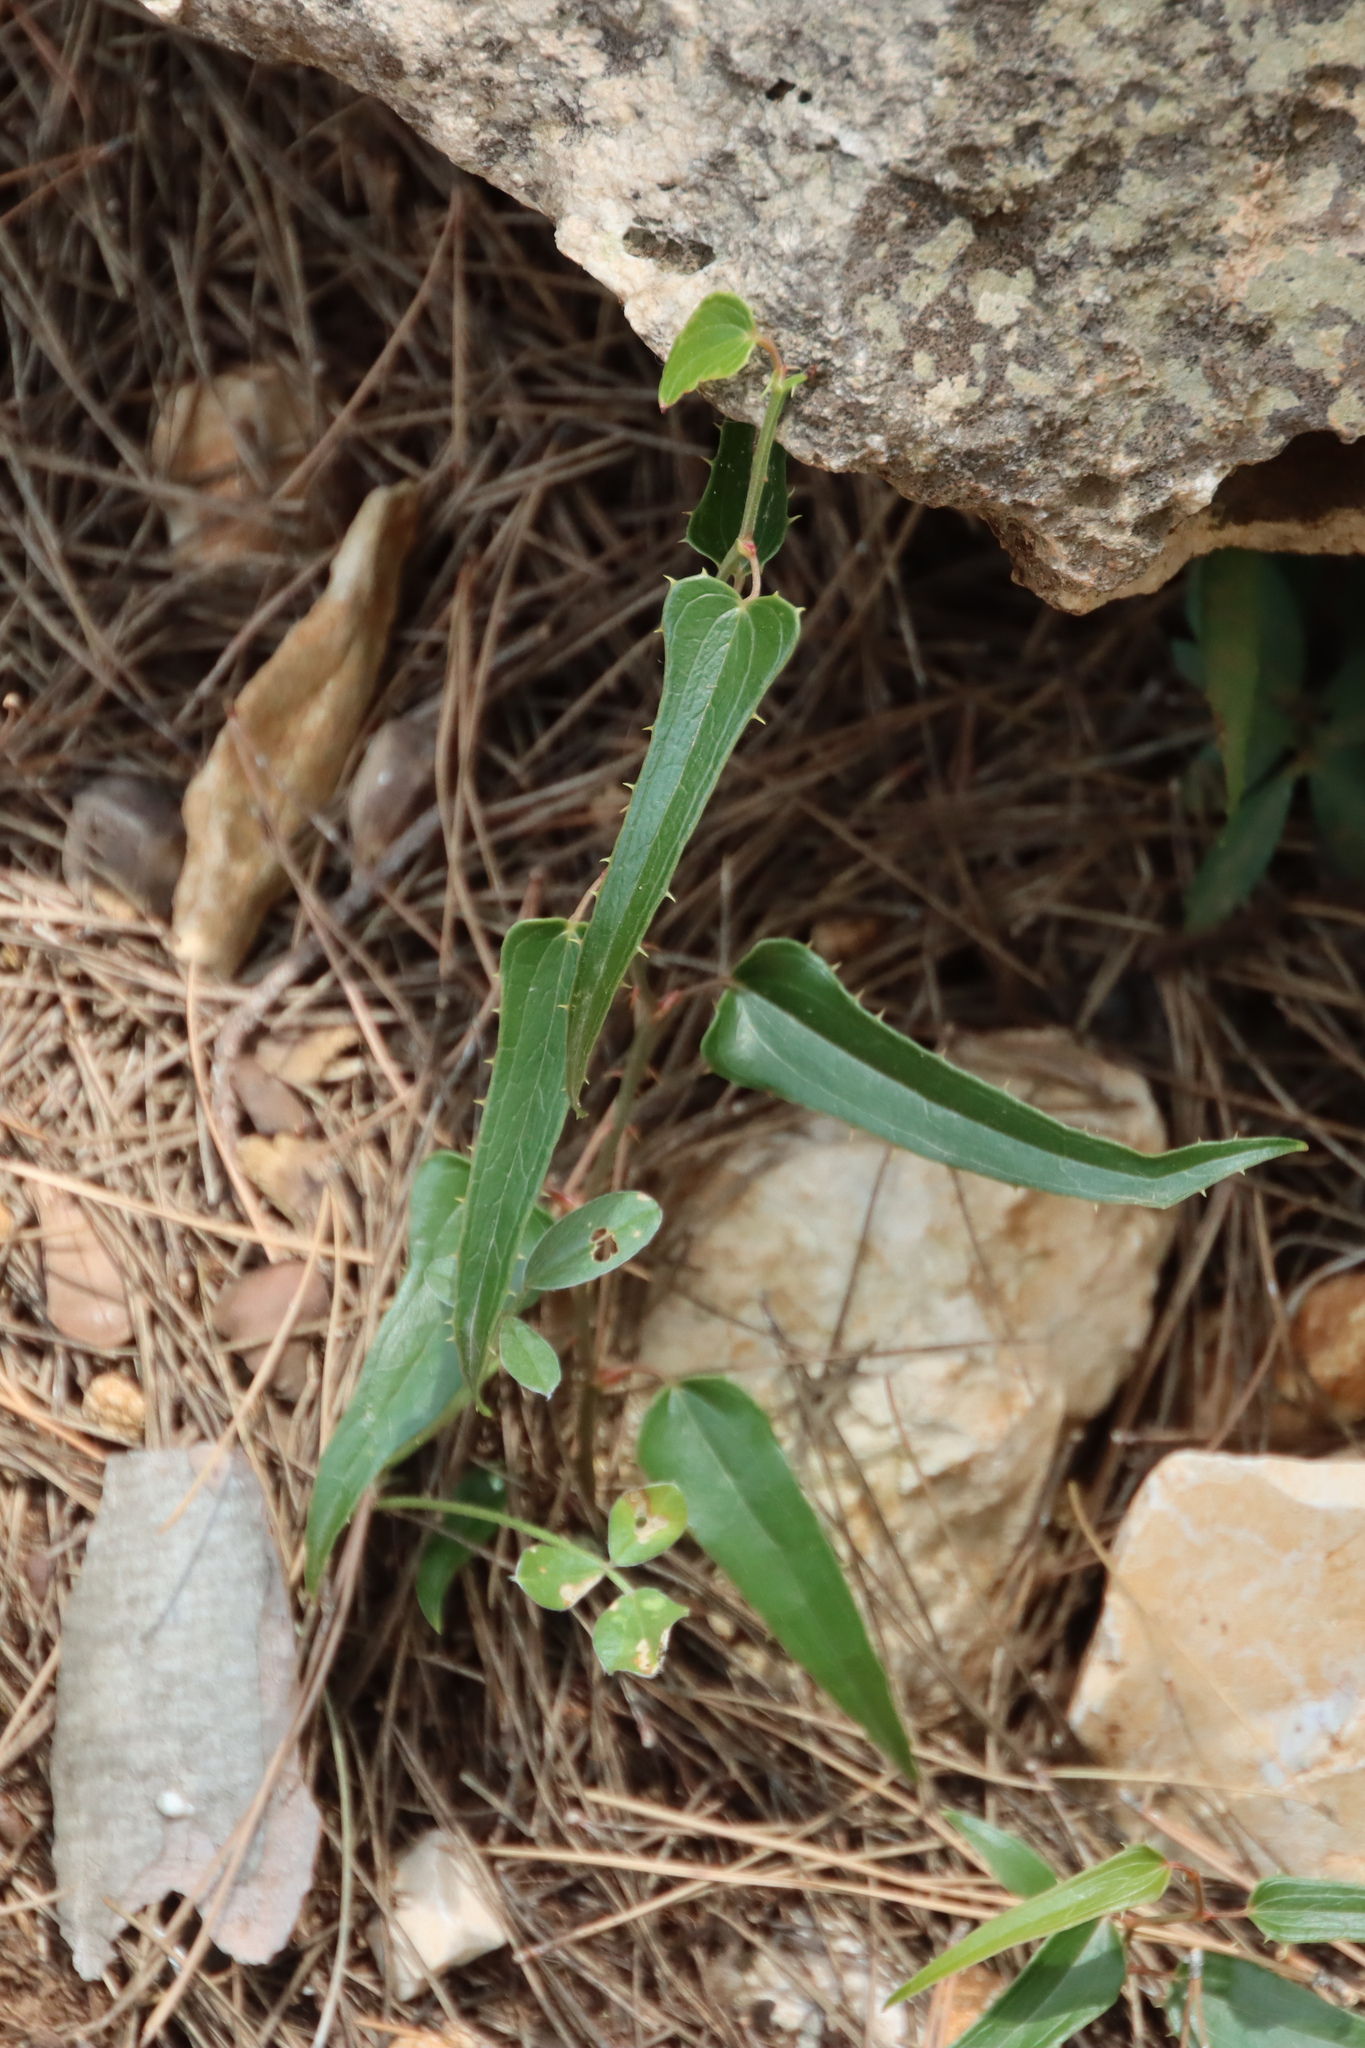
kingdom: Plantae
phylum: Tracheophyta
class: Liliopsida
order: Liliales
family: Smilacaceae
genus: Smilax
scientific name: Smilax aspera
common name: Common smilax
